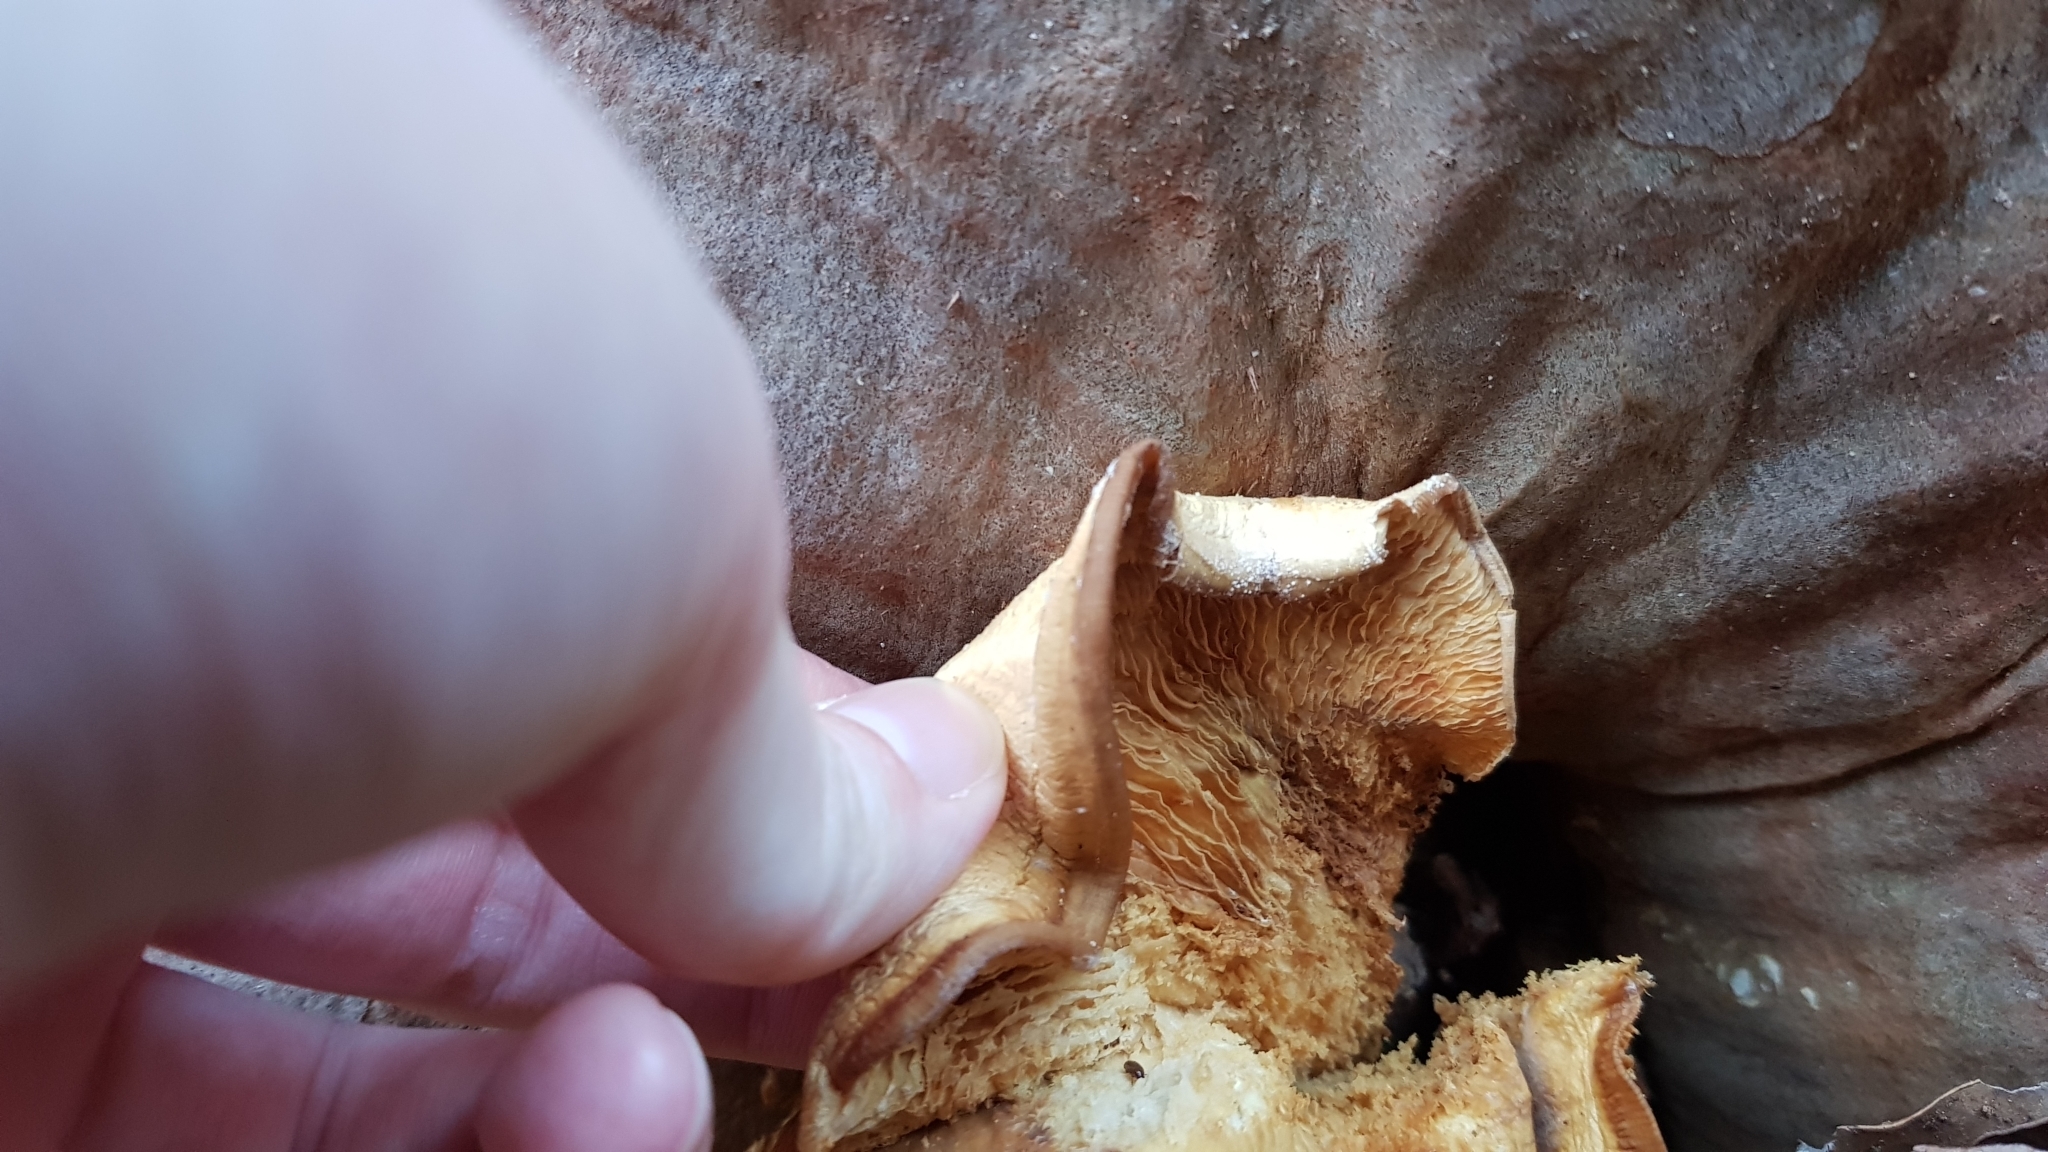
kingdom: Fungi
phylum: Basidiomycota
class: Agaricomycetes
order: Agaricales
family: Omphalotaceae
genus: Omphalotus
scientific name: Omphalotus nidiformis
